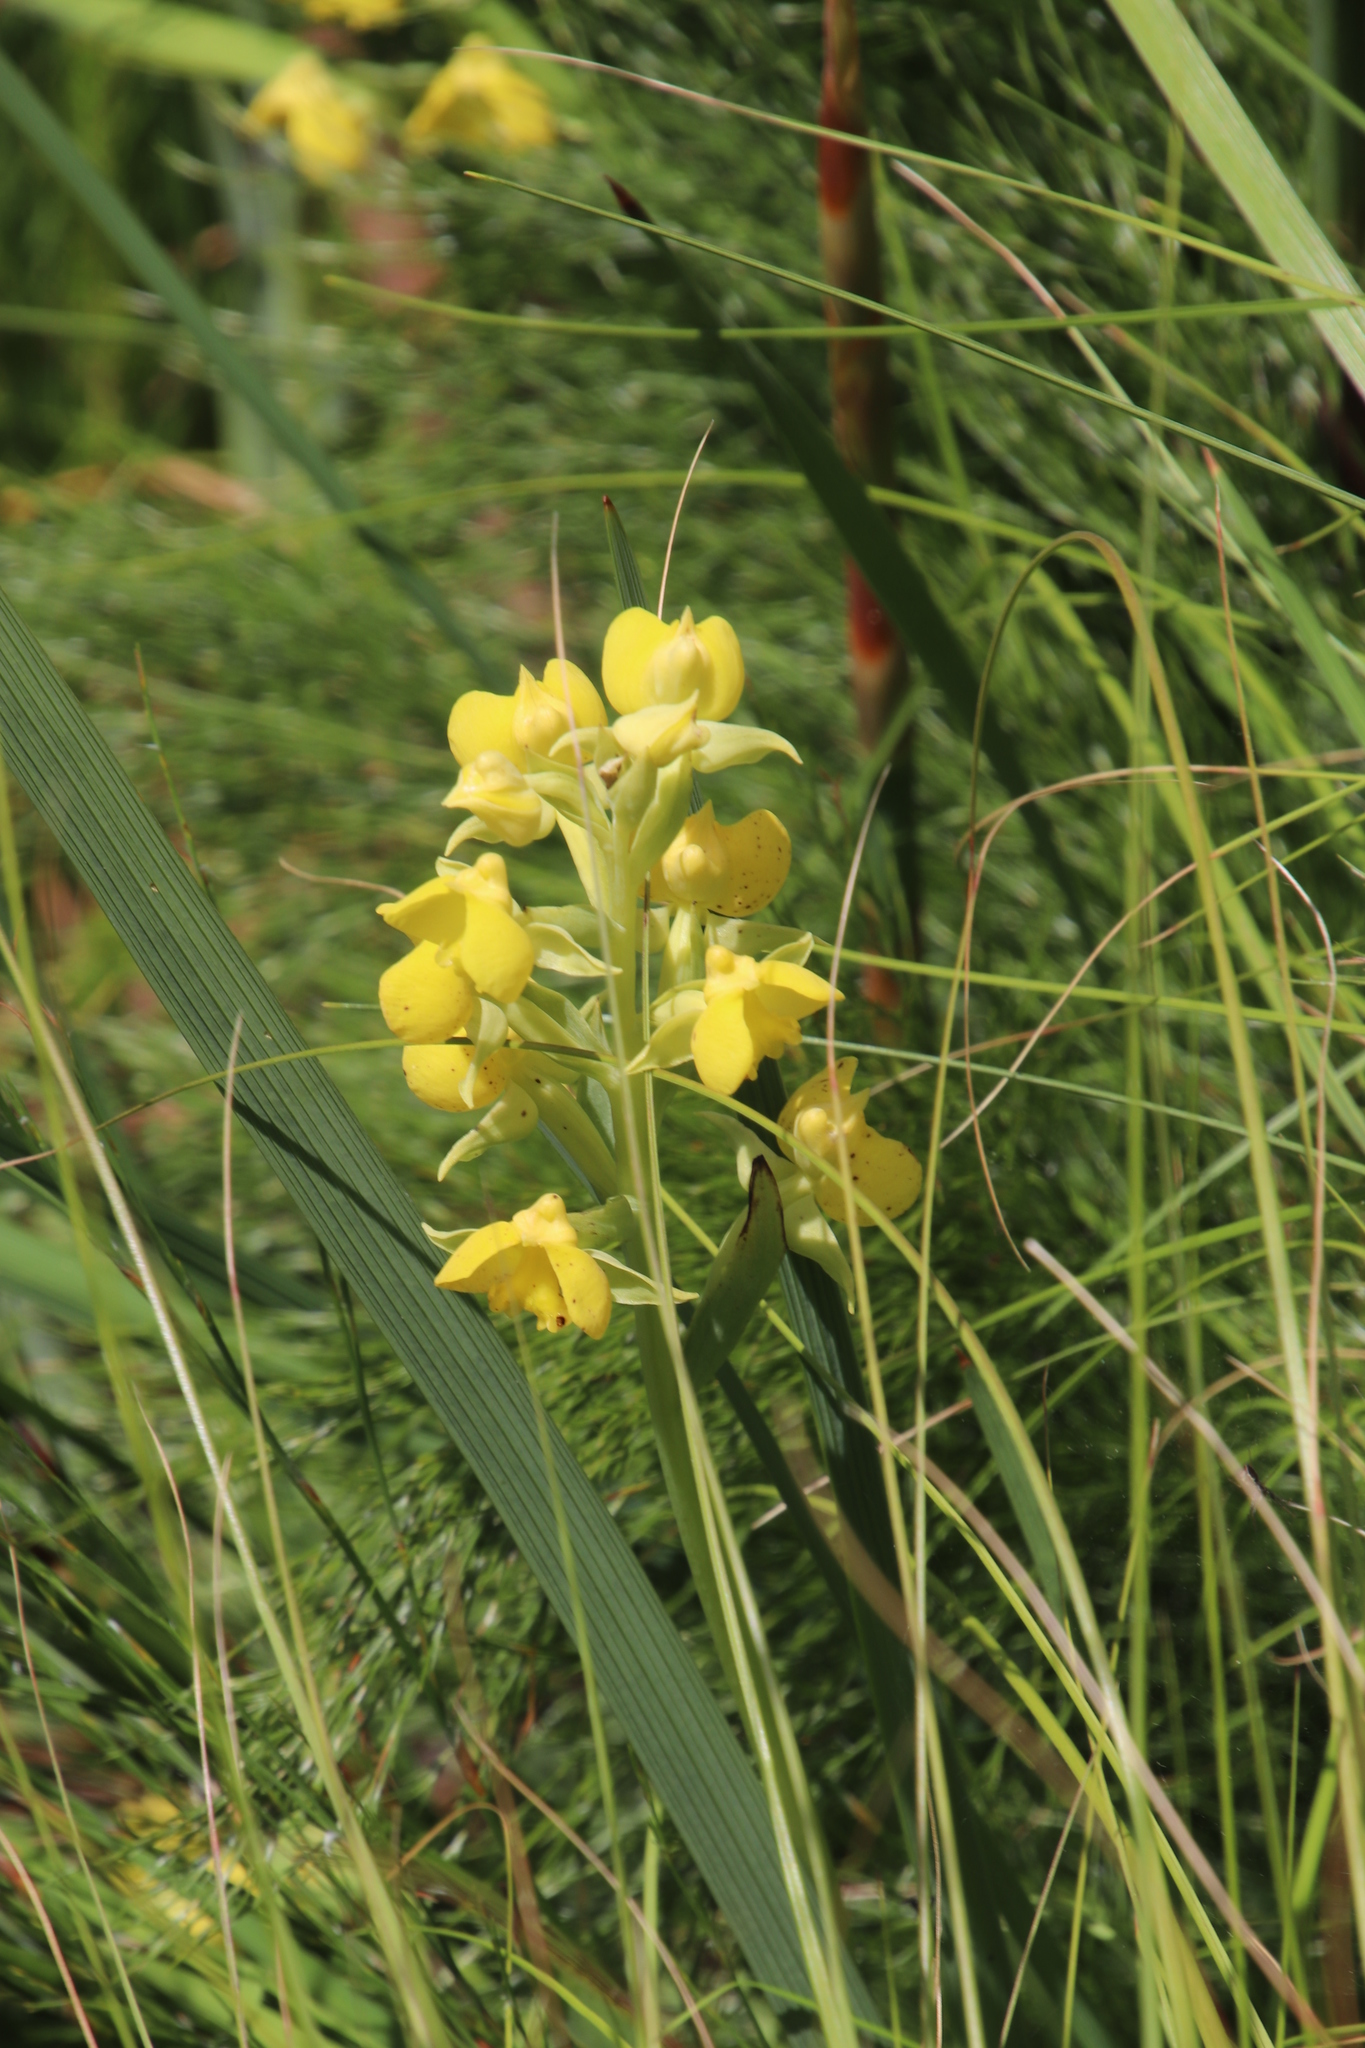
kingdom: Plantae
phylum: Tracheophyta
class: Liliopsida
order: Asparagales
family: Orchidaceae
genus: Pterygodium
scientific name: Pterygodium acutifolium
